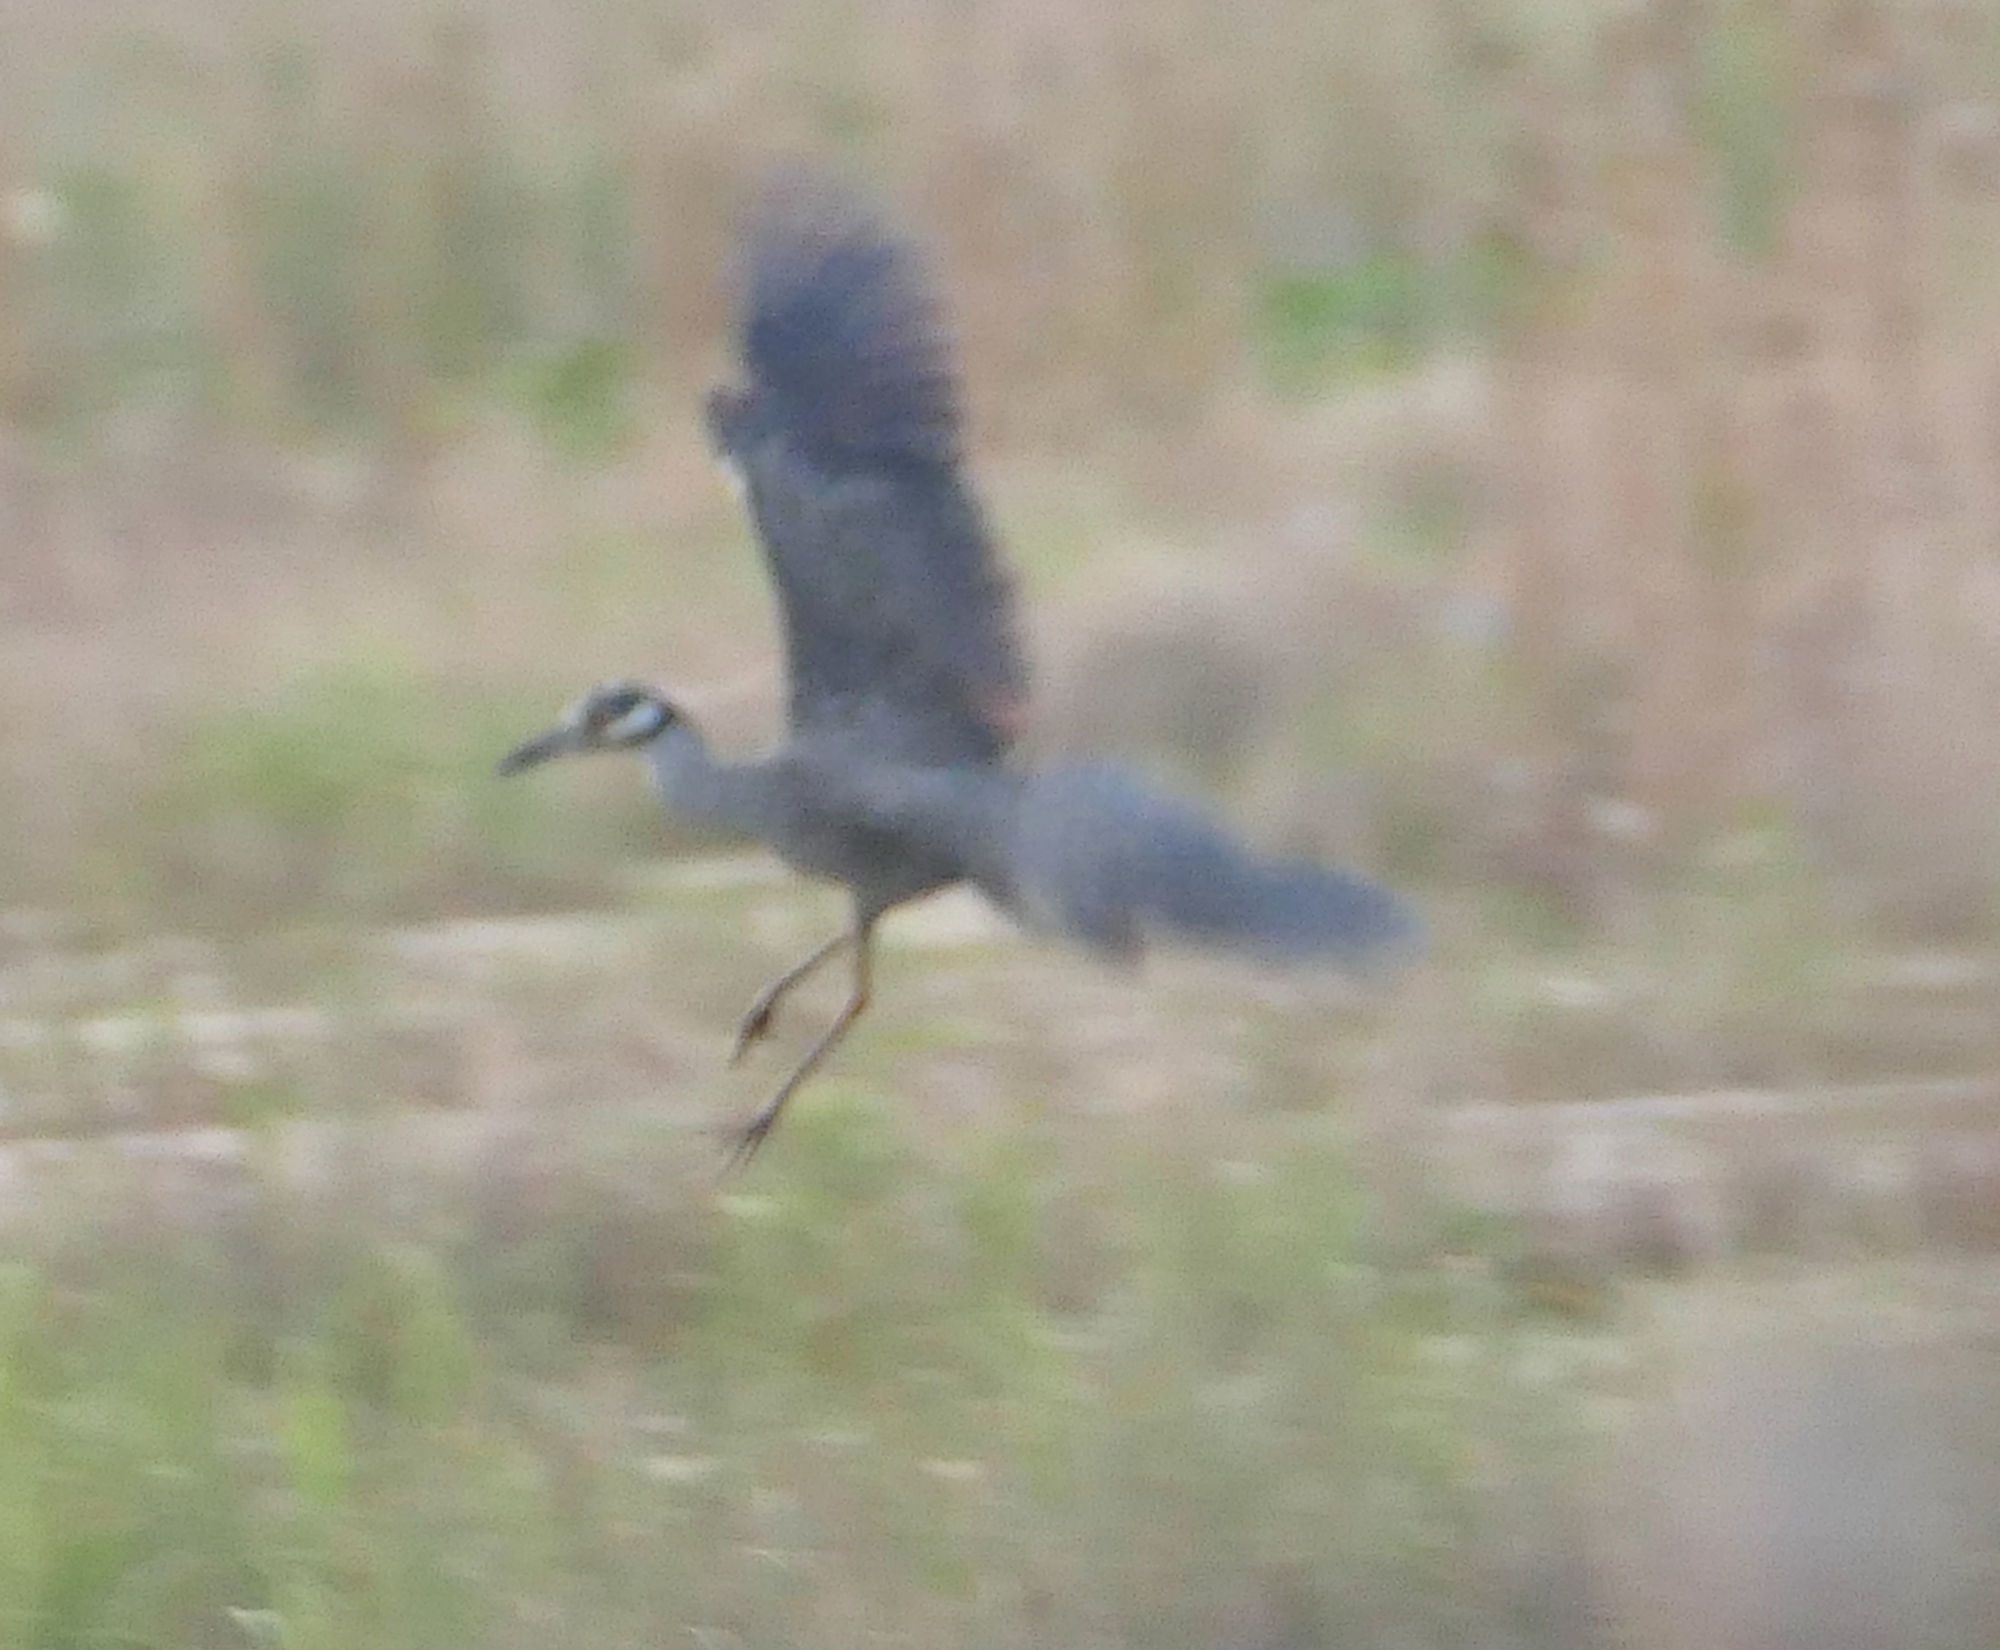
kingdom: Animalia
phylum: Chordata
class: Aves
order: Pelecaniformes
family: Ardeidae
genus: Nyctanassa
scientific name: Nyctanassa violacea
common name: Yellow-crowned night heron
